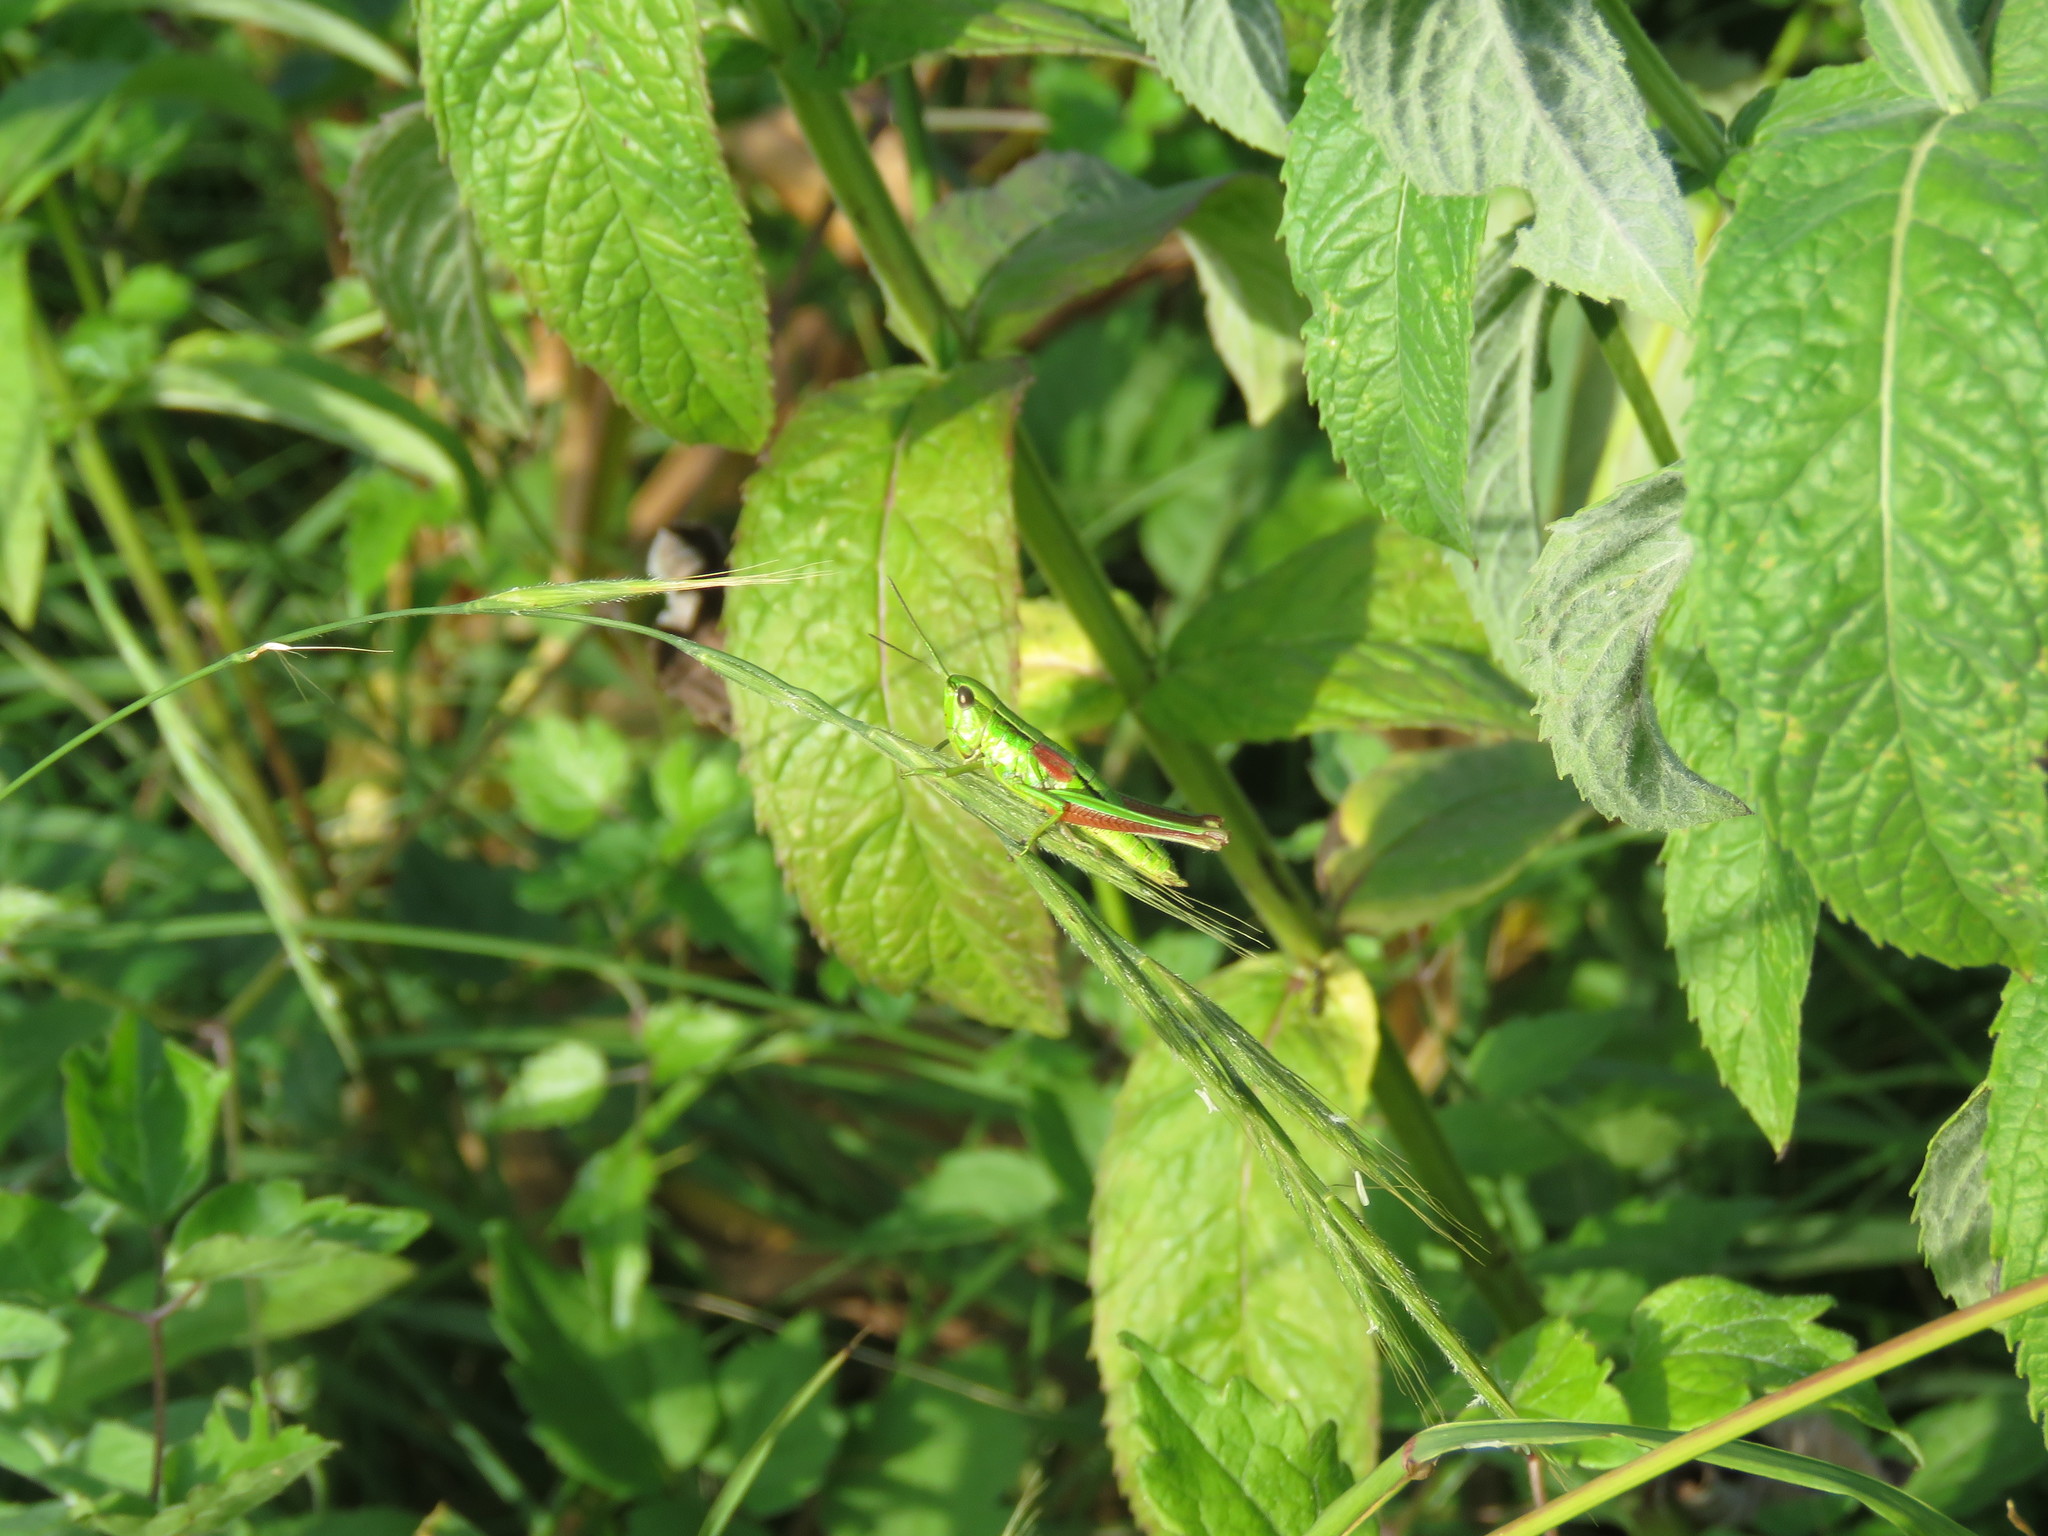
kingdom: Animalia
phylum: Arthropoda
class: Insecta
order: Orthoptera
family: Acrididae
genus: Euthystira
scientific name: Euthystira brachyptera
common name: Small gold grasshopper
